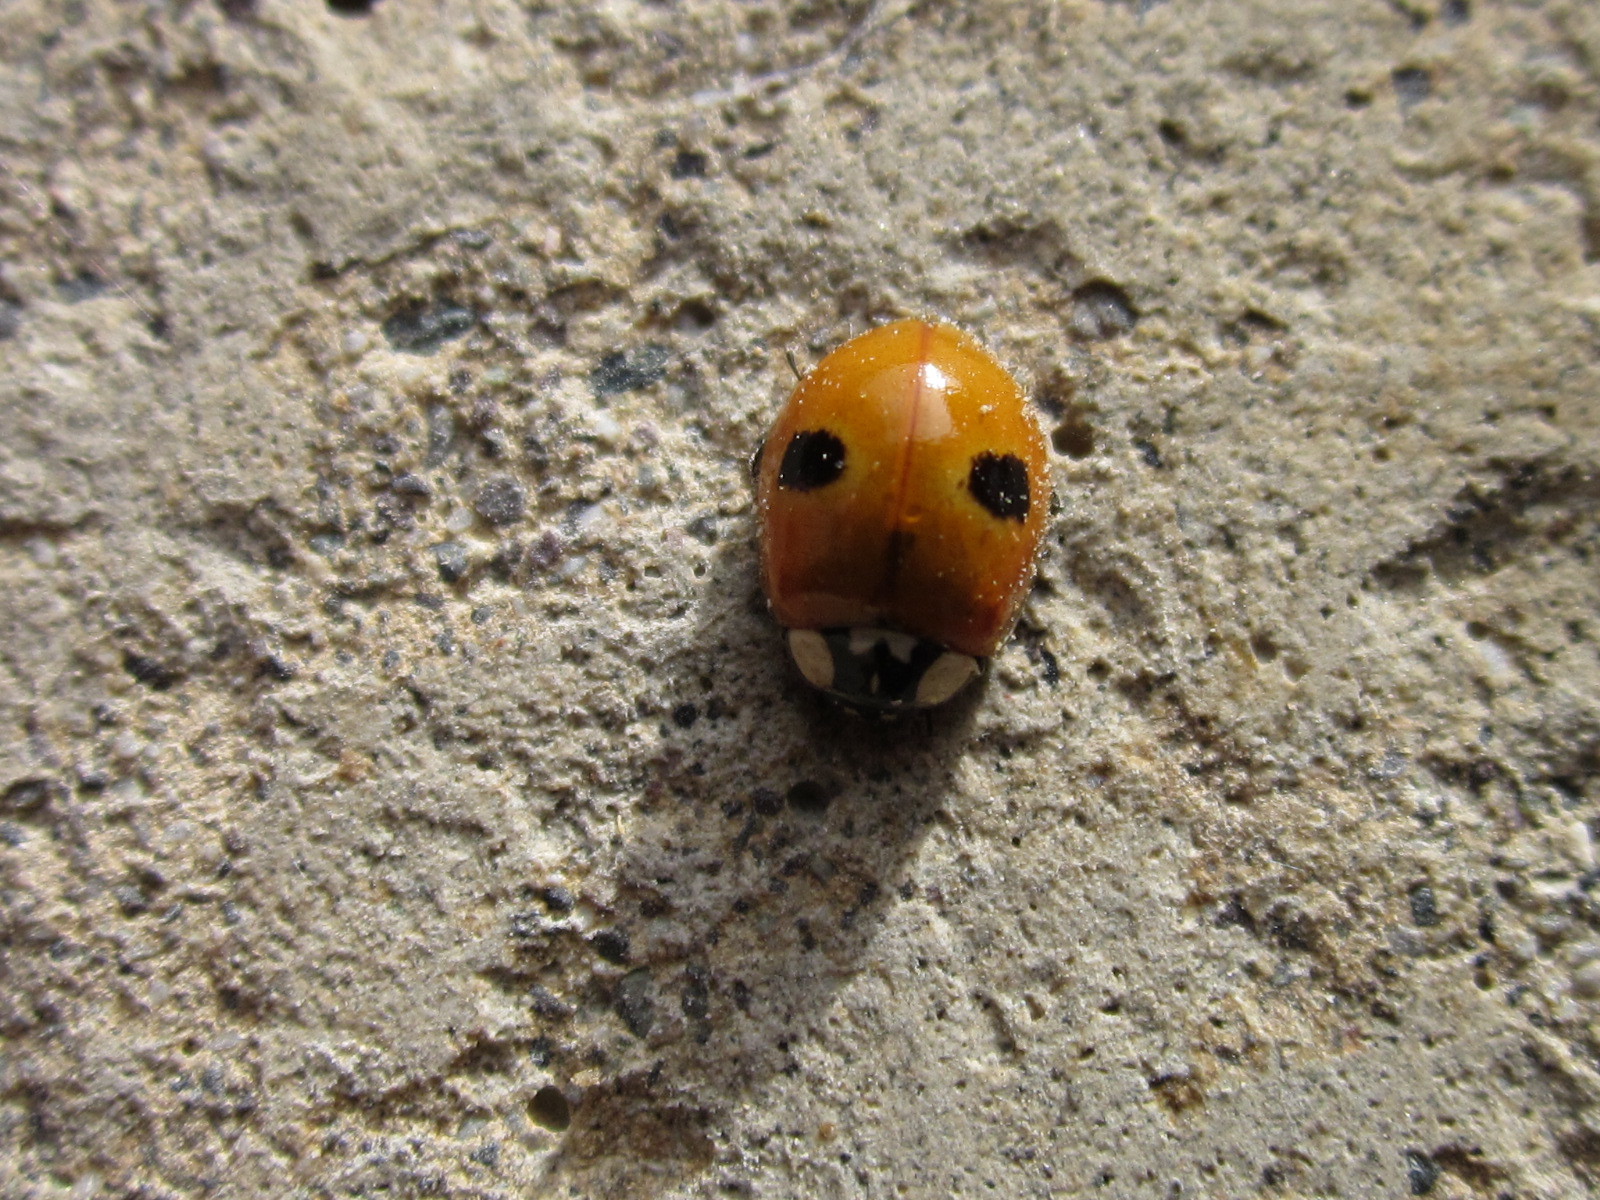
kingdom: Animalia
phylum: Arthropoda
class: Insecta
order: Coleoptera
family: Coccinellidae
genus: Adalia
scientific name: Adalia bipunctata
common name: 2-spot ladybird
